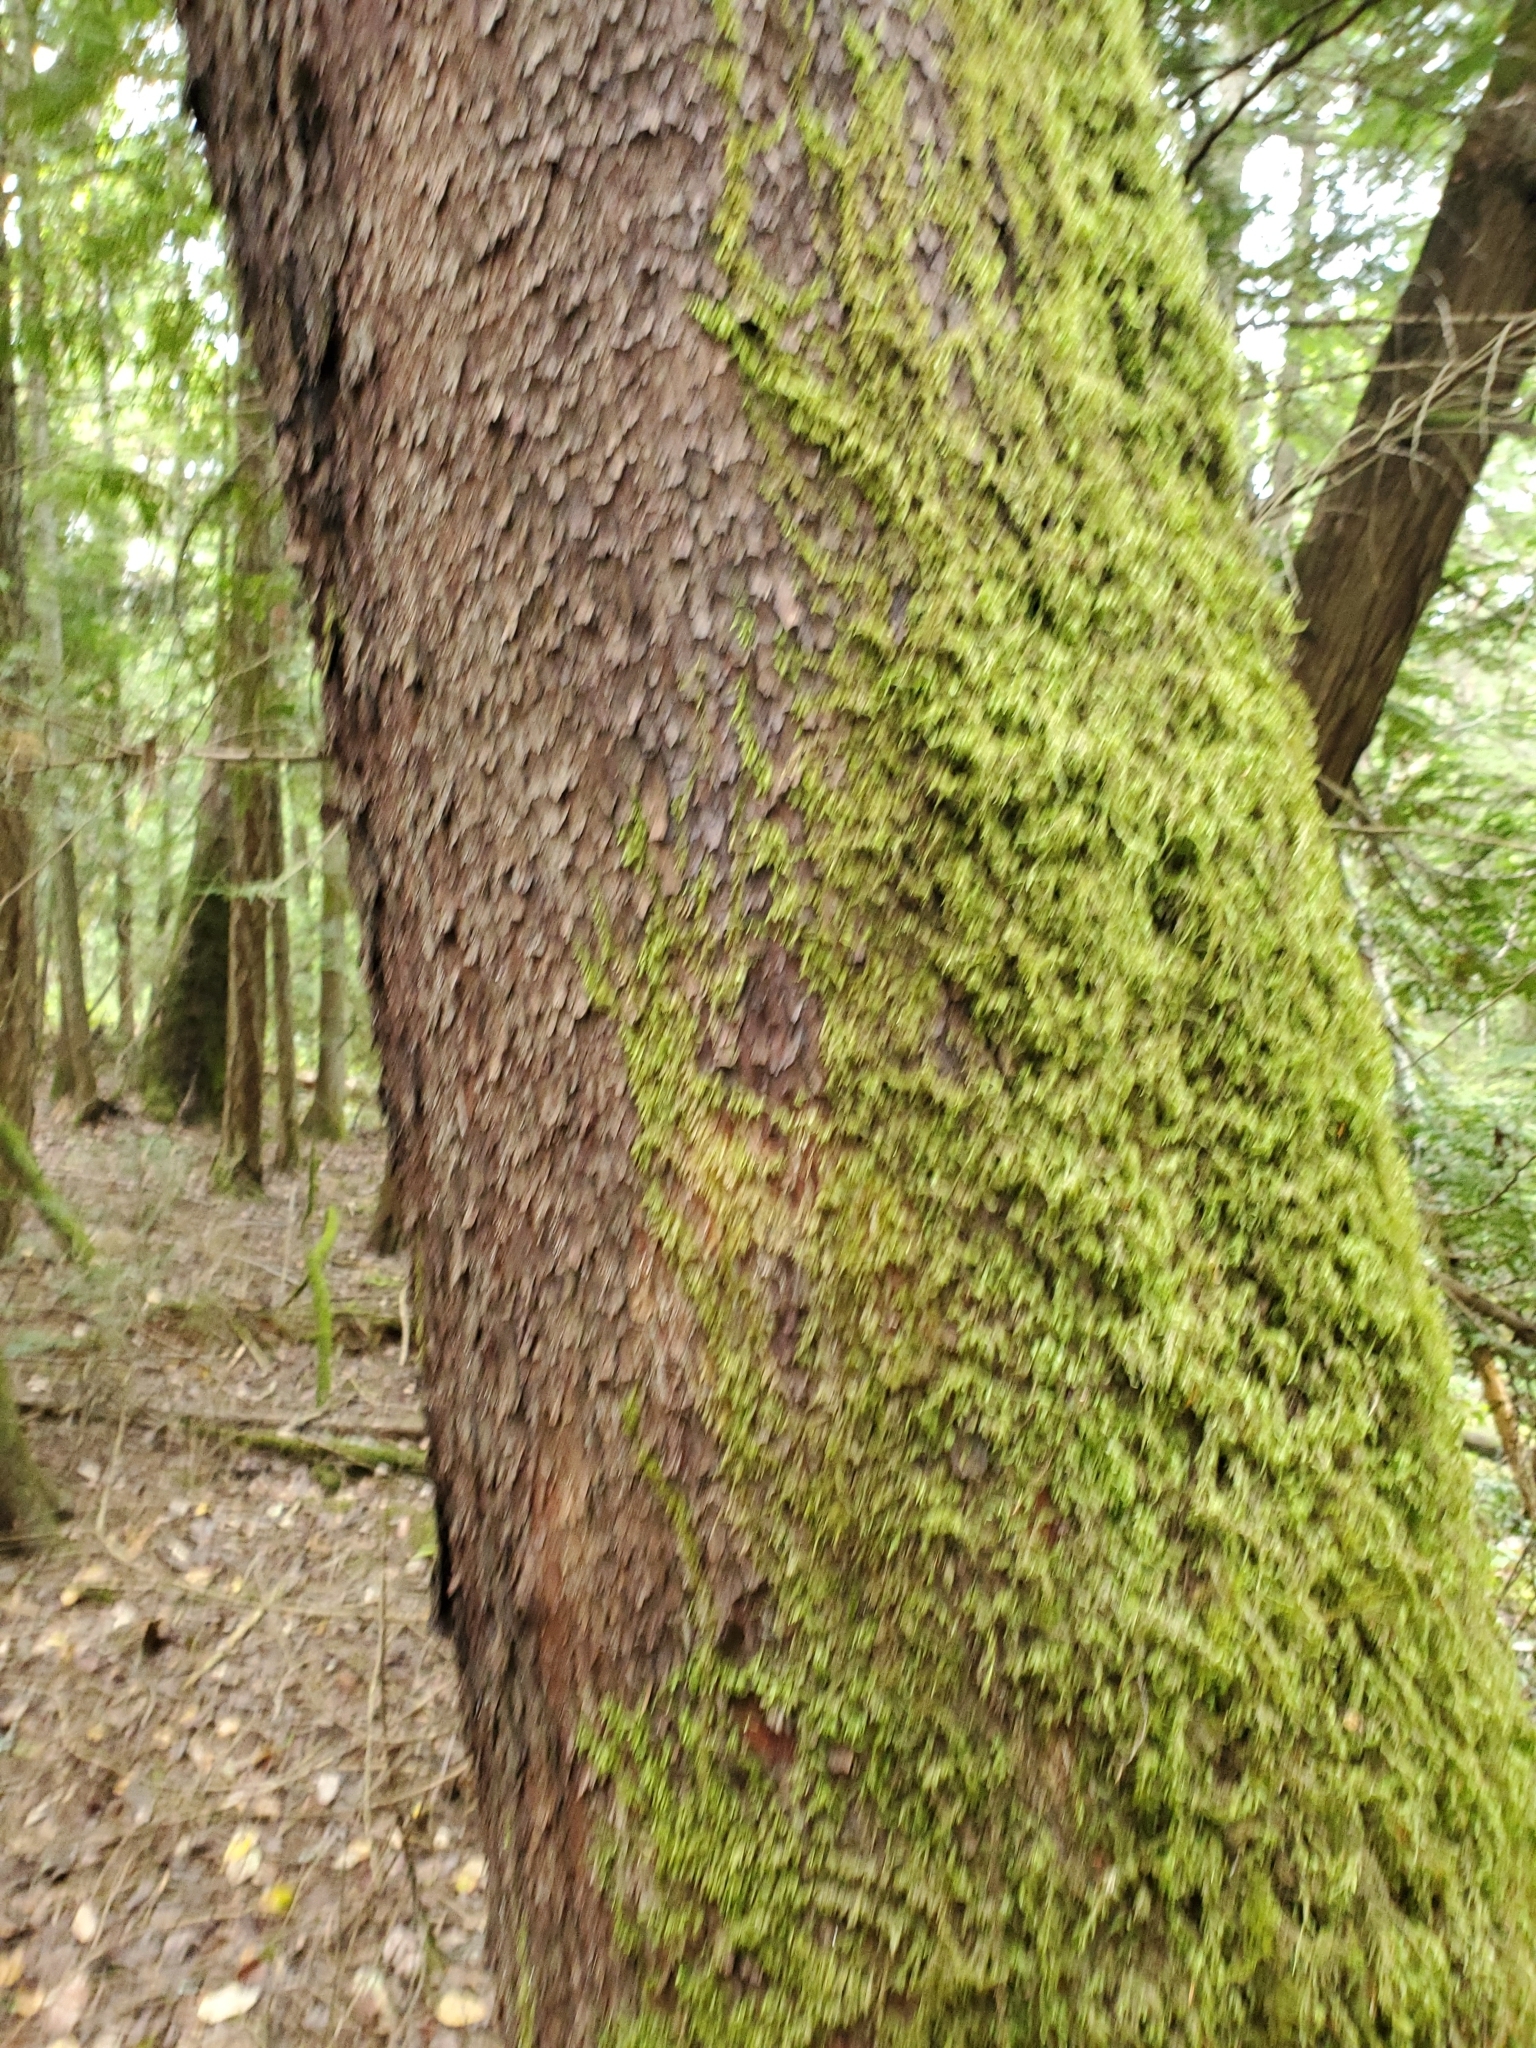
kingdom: Plantae
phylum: Tracheophyta
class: Magnoliopsida
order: Ericales
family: Ericaceae
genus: Arbutus
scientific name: Arbutus menziesii
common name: Pacific madrone
